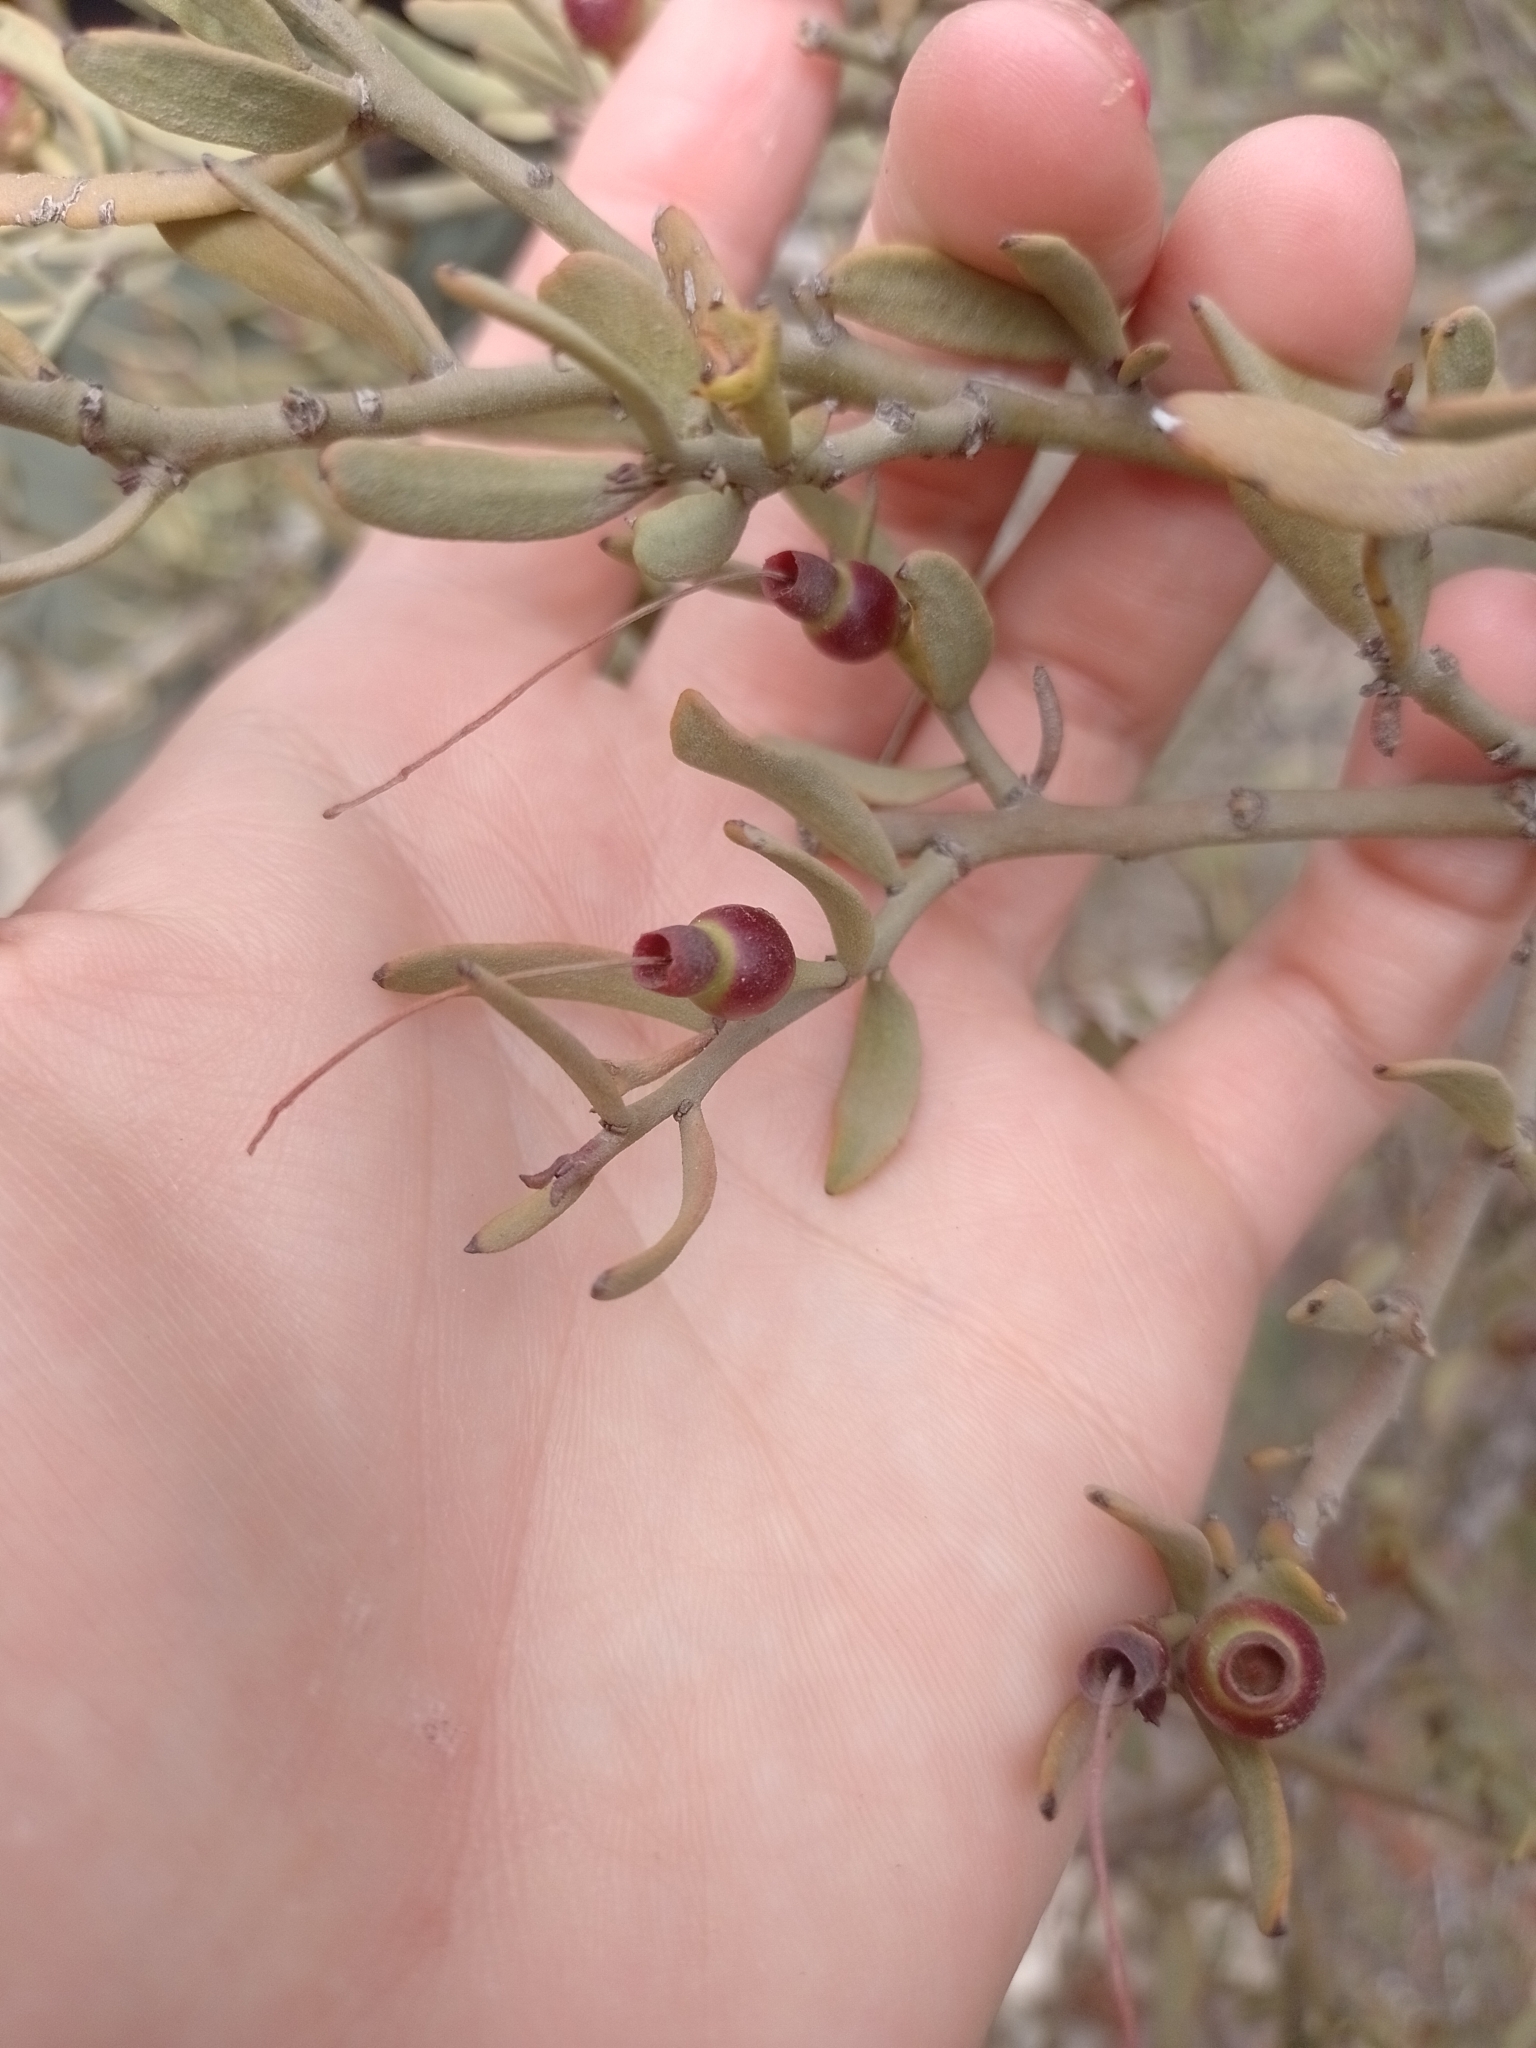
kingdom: Plantae
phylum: Tracheophyta
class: Magnoliopsida
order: Santalales
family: Loranthaceae
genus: Ligaria
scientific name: Ligaria cuneifolia
